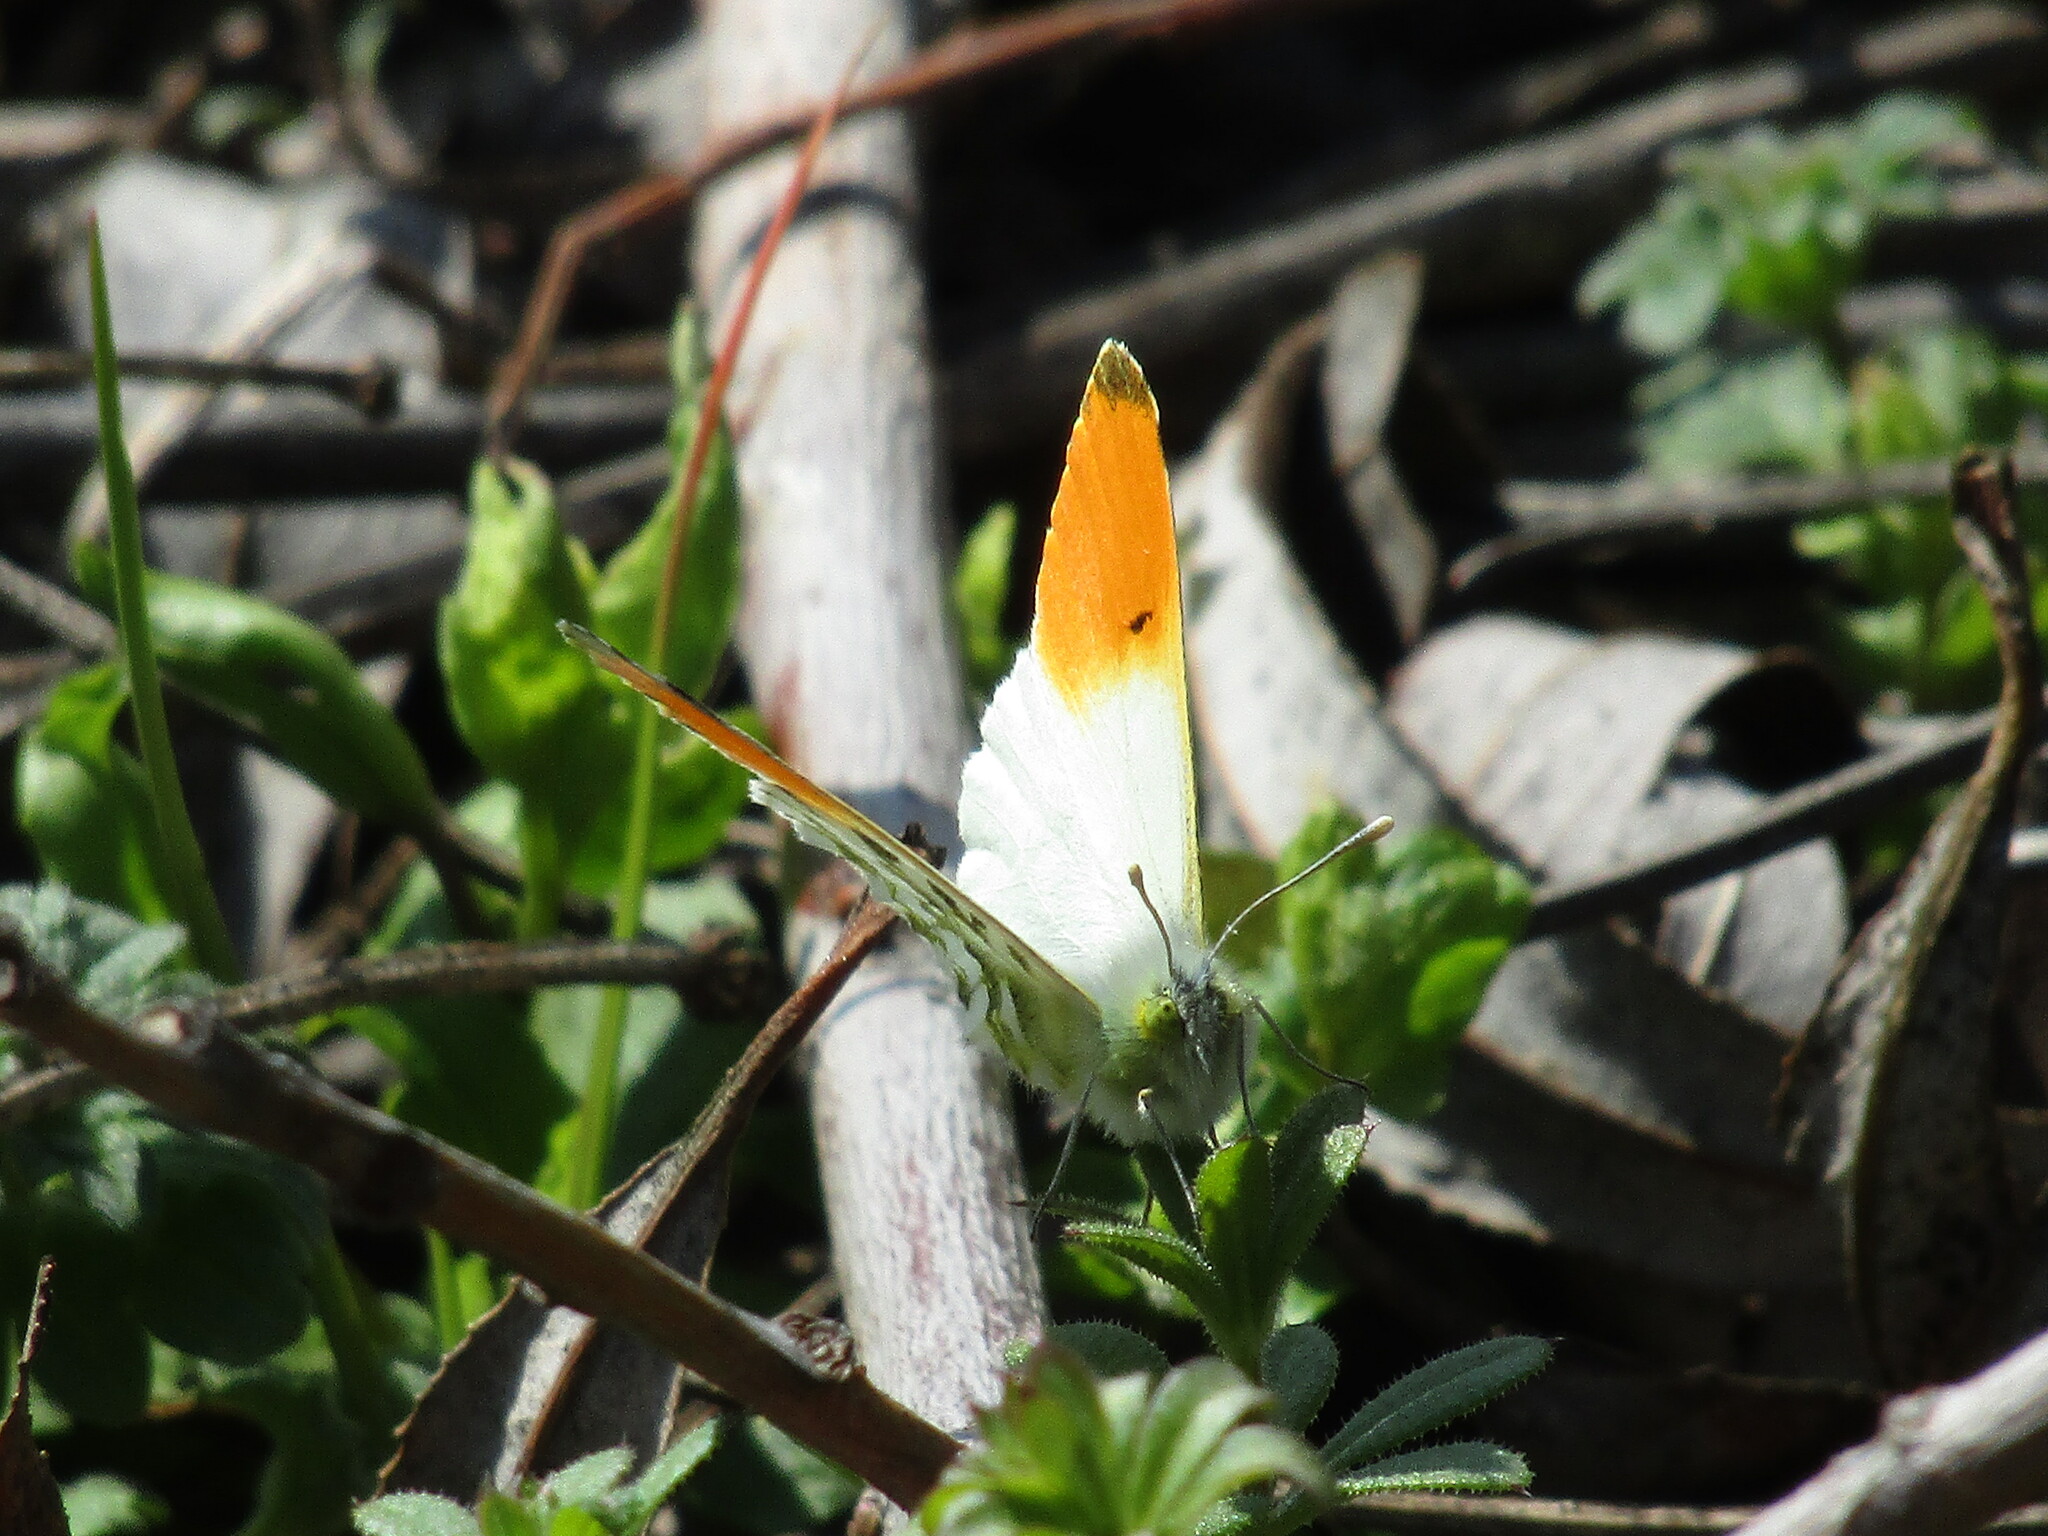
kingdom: Animalia
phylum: Arthropoda
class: Insecta
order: Lepidoptera
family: Pieridae
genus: Anthocharis
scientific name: Anthocharis cardamines
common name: Orange-tip
